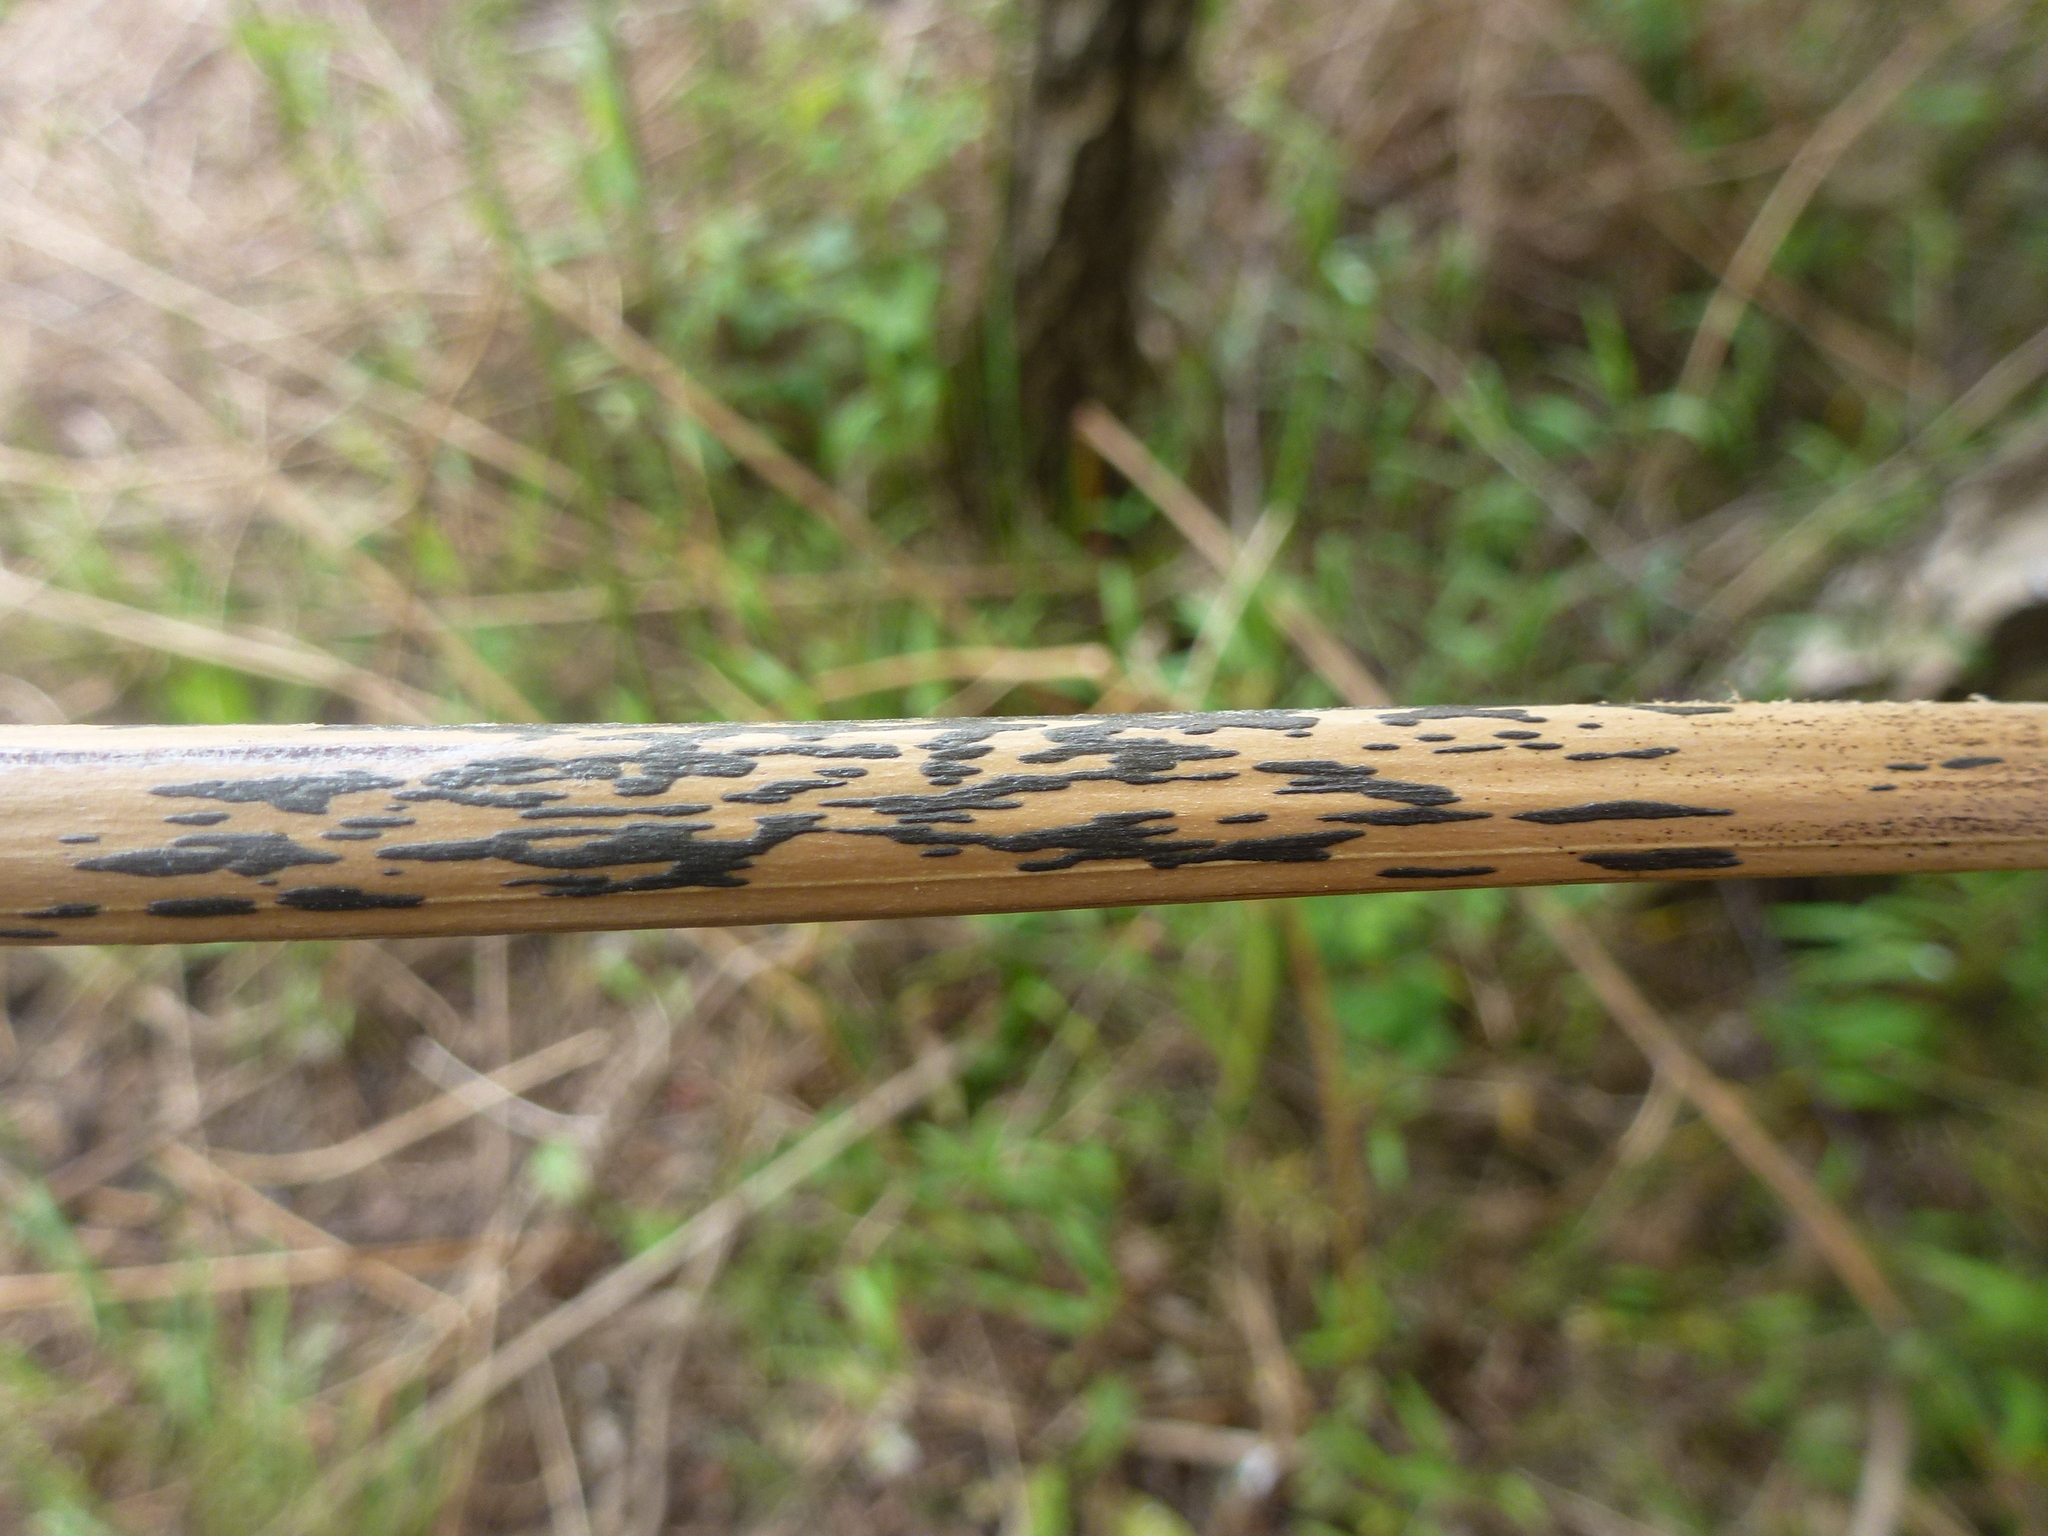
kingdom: Fungi
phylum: Ascomycota
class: Dothideomycetes
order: Pleosporales
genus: Rhopographus
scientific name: Rhopographus filicinus
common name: Bracken map
